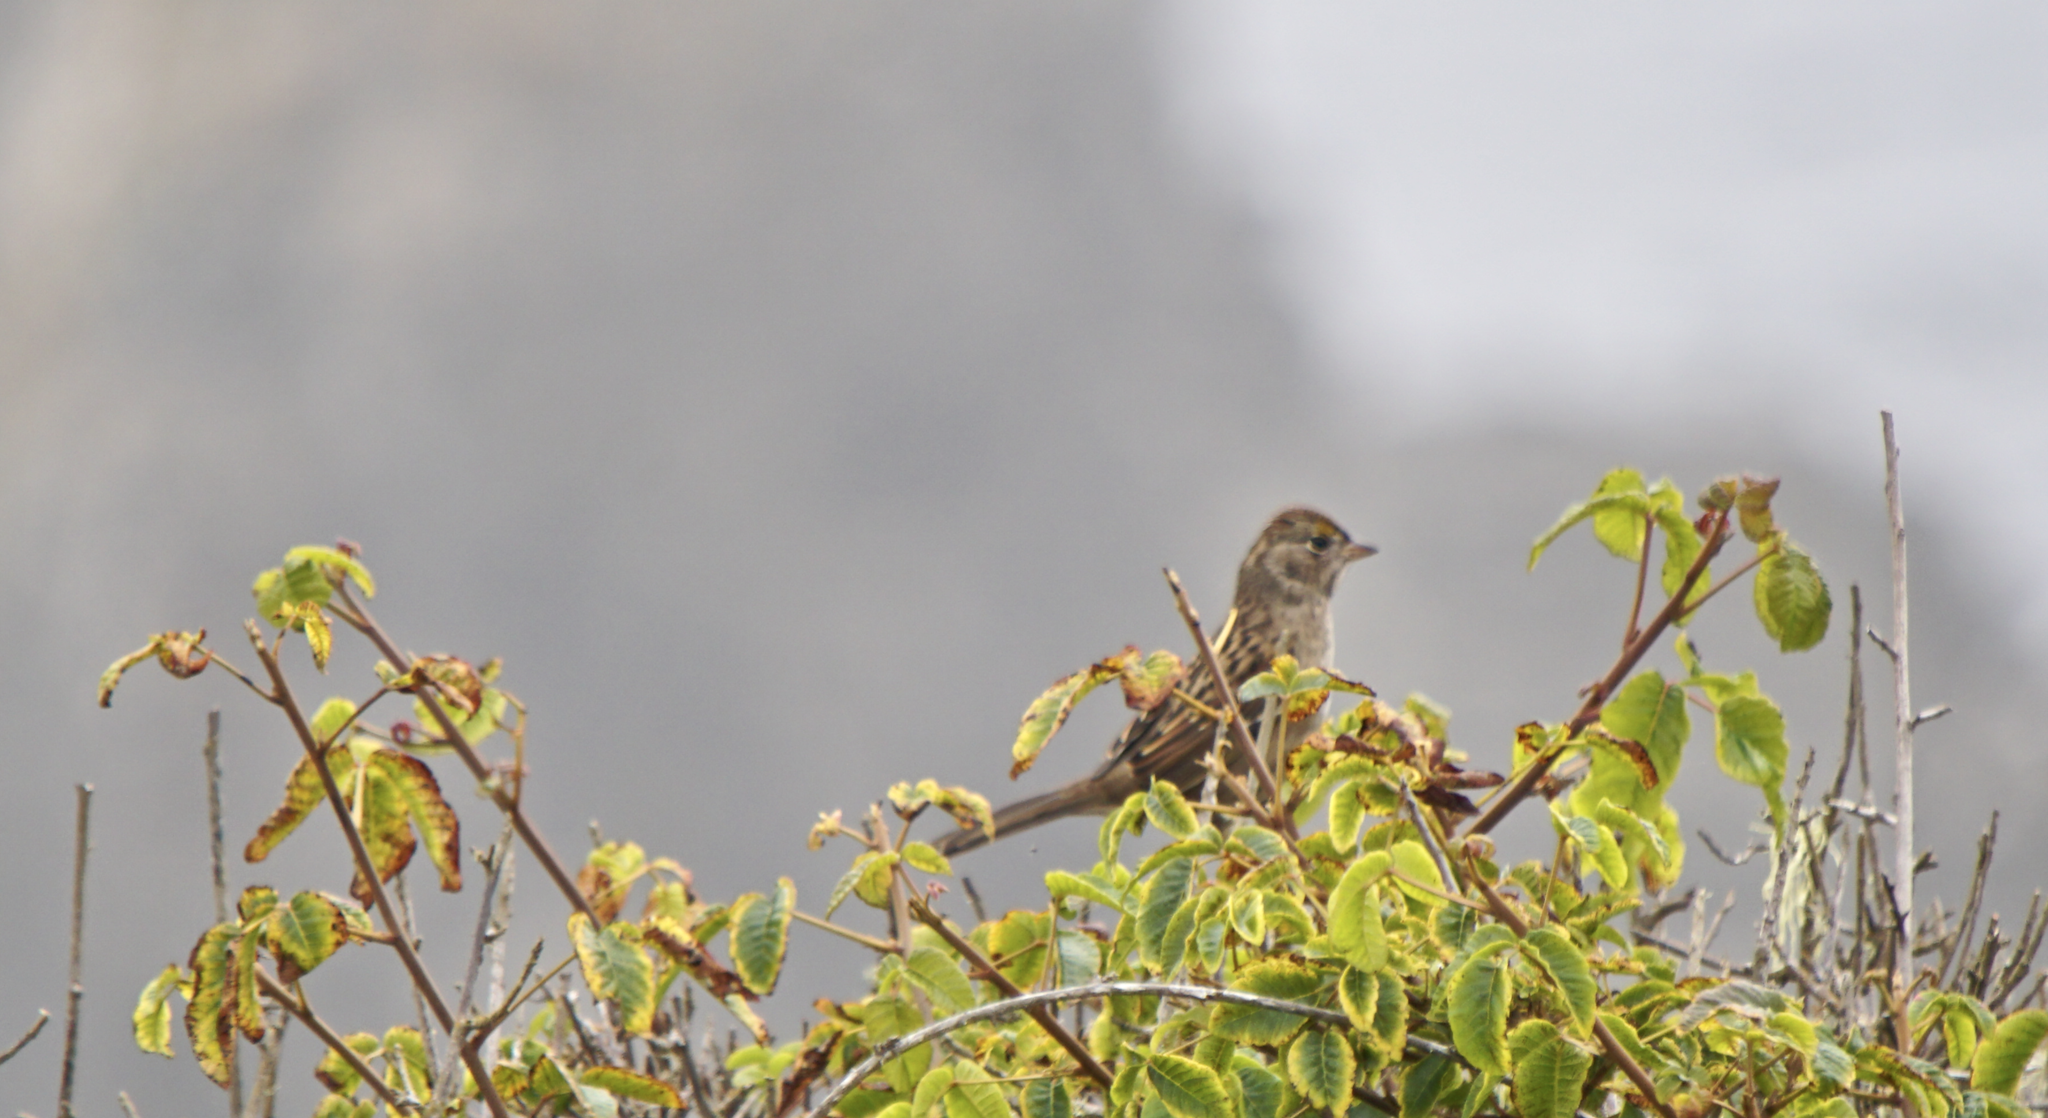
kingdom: Animalia
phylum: Chordata
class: Aves
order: Passeriformes
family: Passerellidae
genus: Zonotrichia
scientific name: Zonotrichia atricapilla
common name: Golden-crowned sparrow
